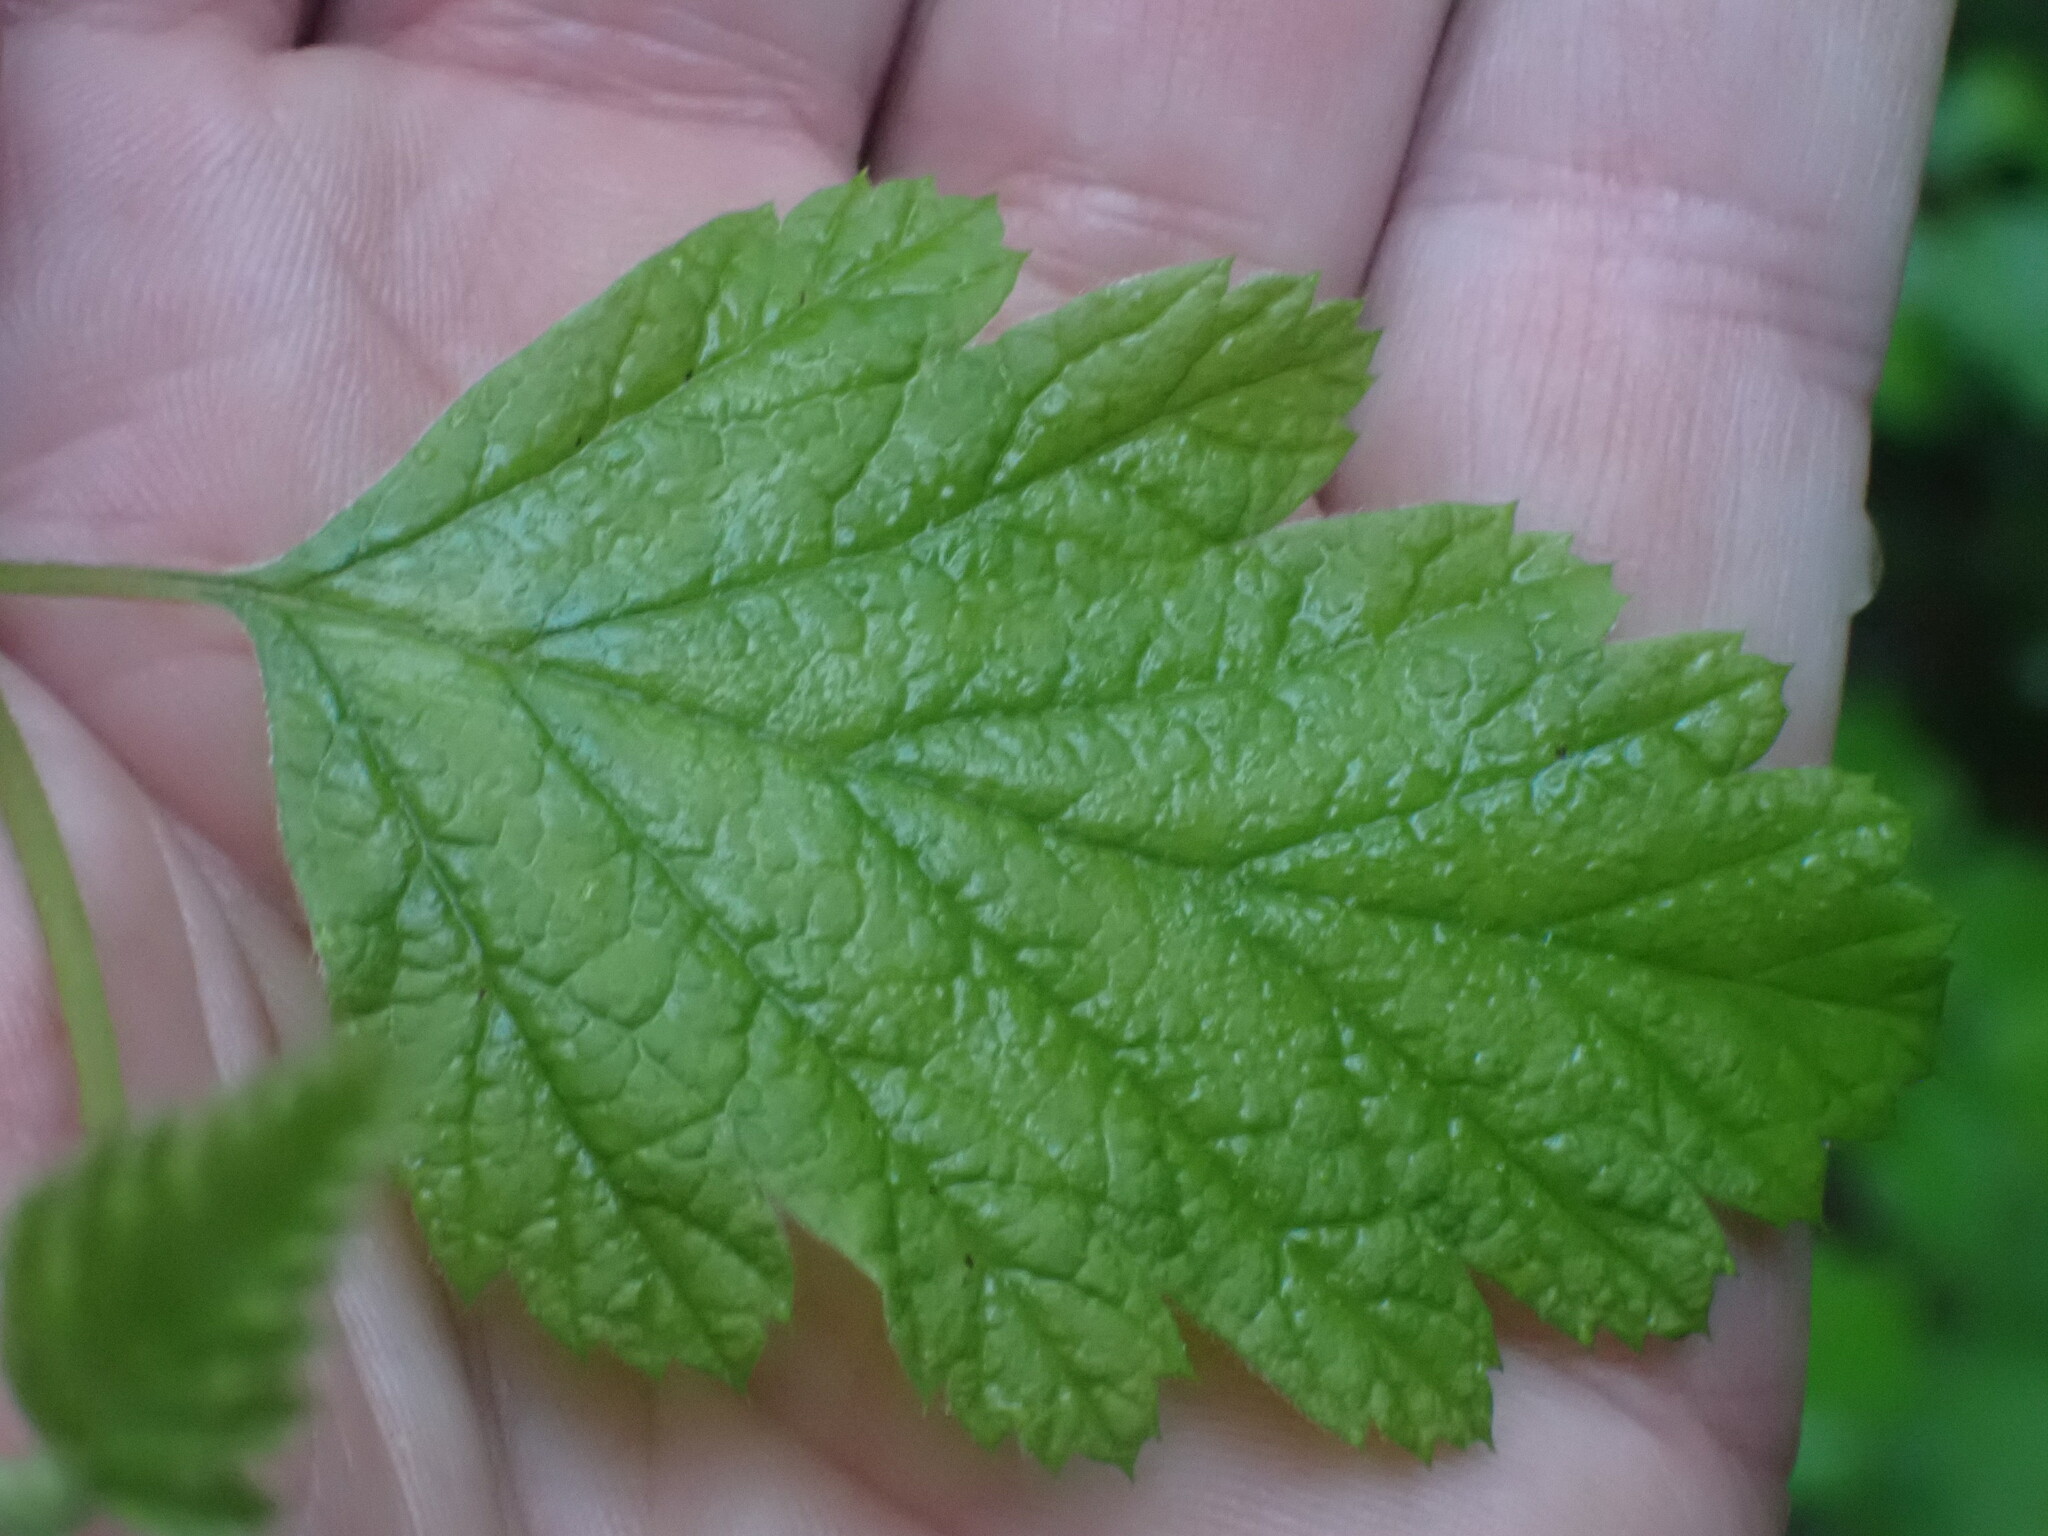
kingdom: Plantae
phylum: Tracheophyta
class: Magnoliopsida
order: Rosales
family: Rosaceae
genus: Holodiscus
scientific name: Holodiscus discolor
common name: Oceanspray
